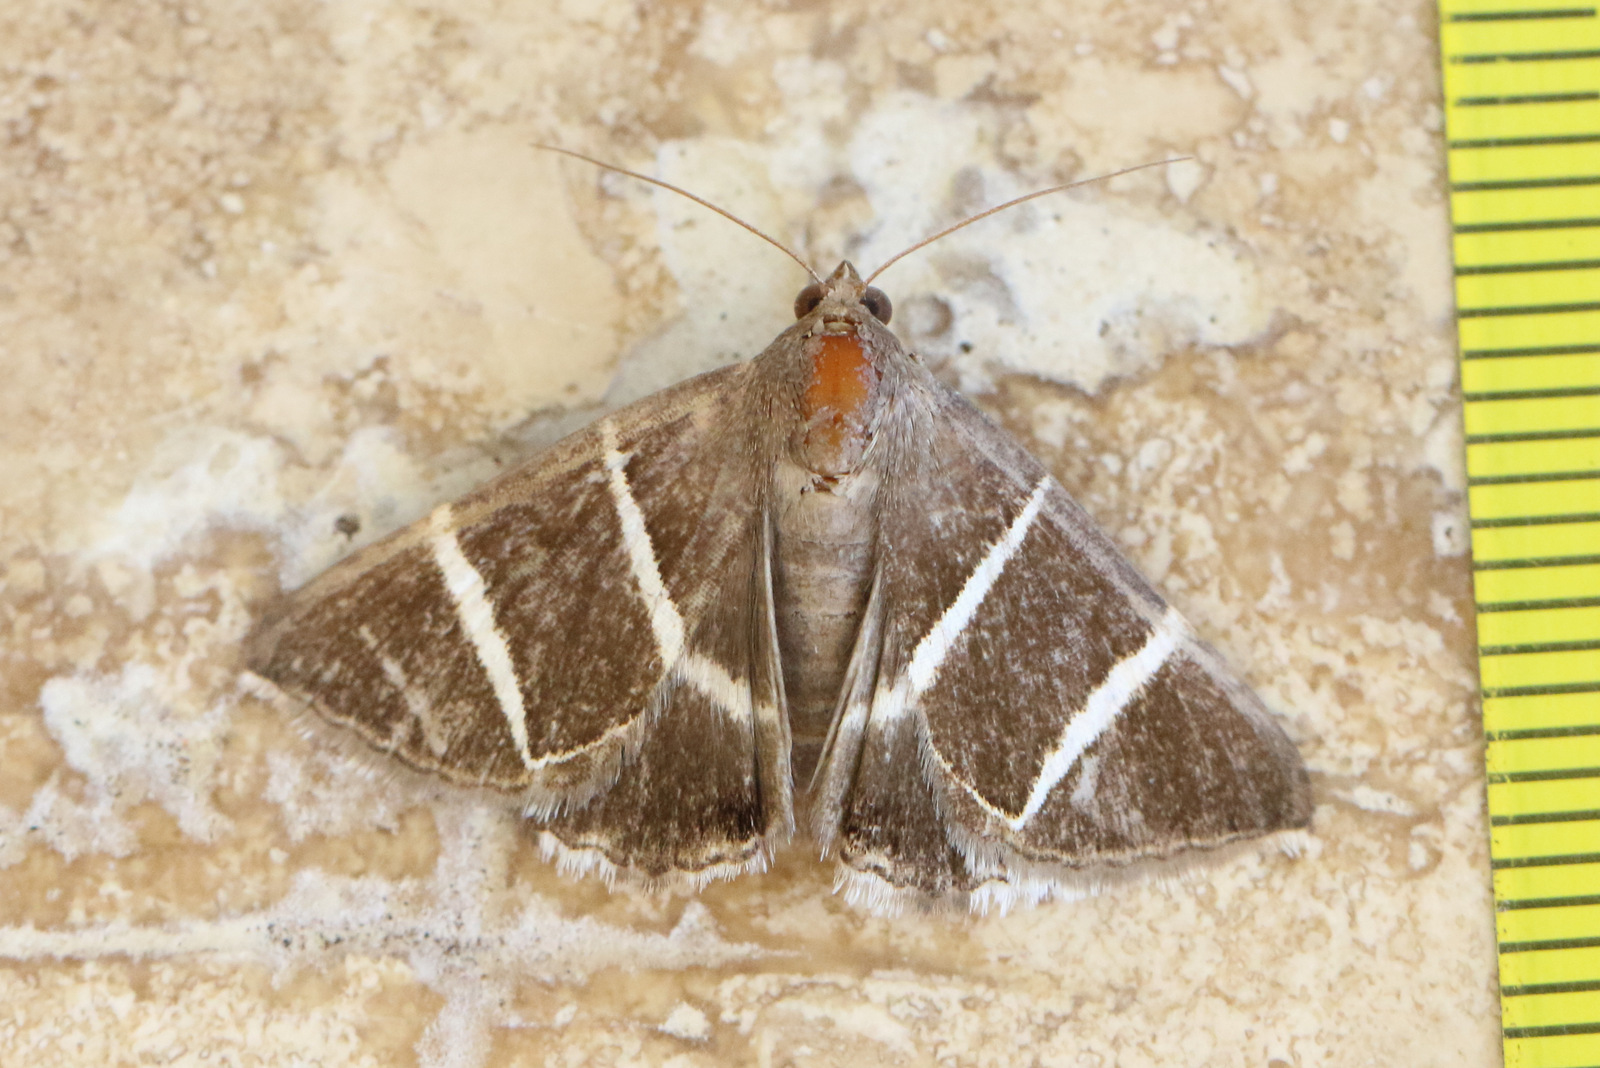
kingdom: Animalia
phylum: Arthropoda
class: Insecta
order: Lepidoptera
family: Erebidae
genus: Grammodes
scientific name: Grammodes justa
